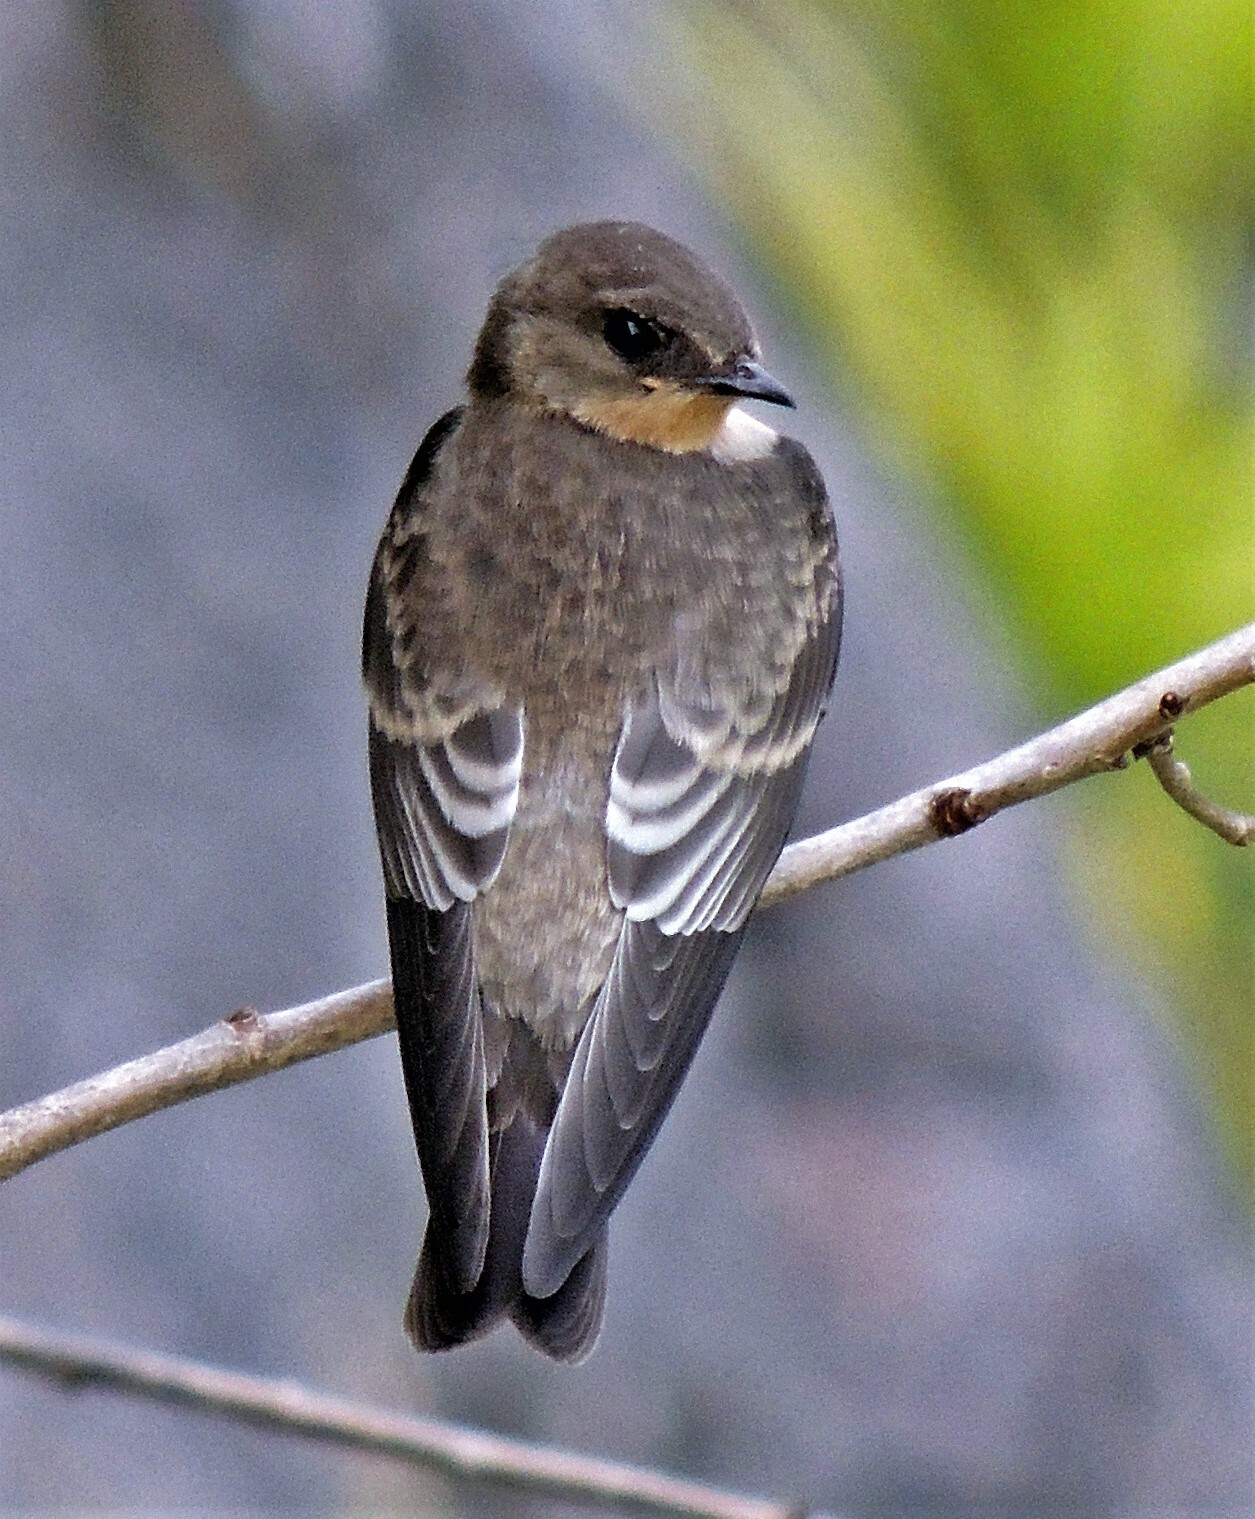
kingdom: Animalia
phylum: Chordata
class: Aves
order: Passeriformes
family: Hirundinidae
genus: Stelgidopteryx
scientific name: Stelgidopteryx ruficollis
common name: Southern rough-winged swallow
